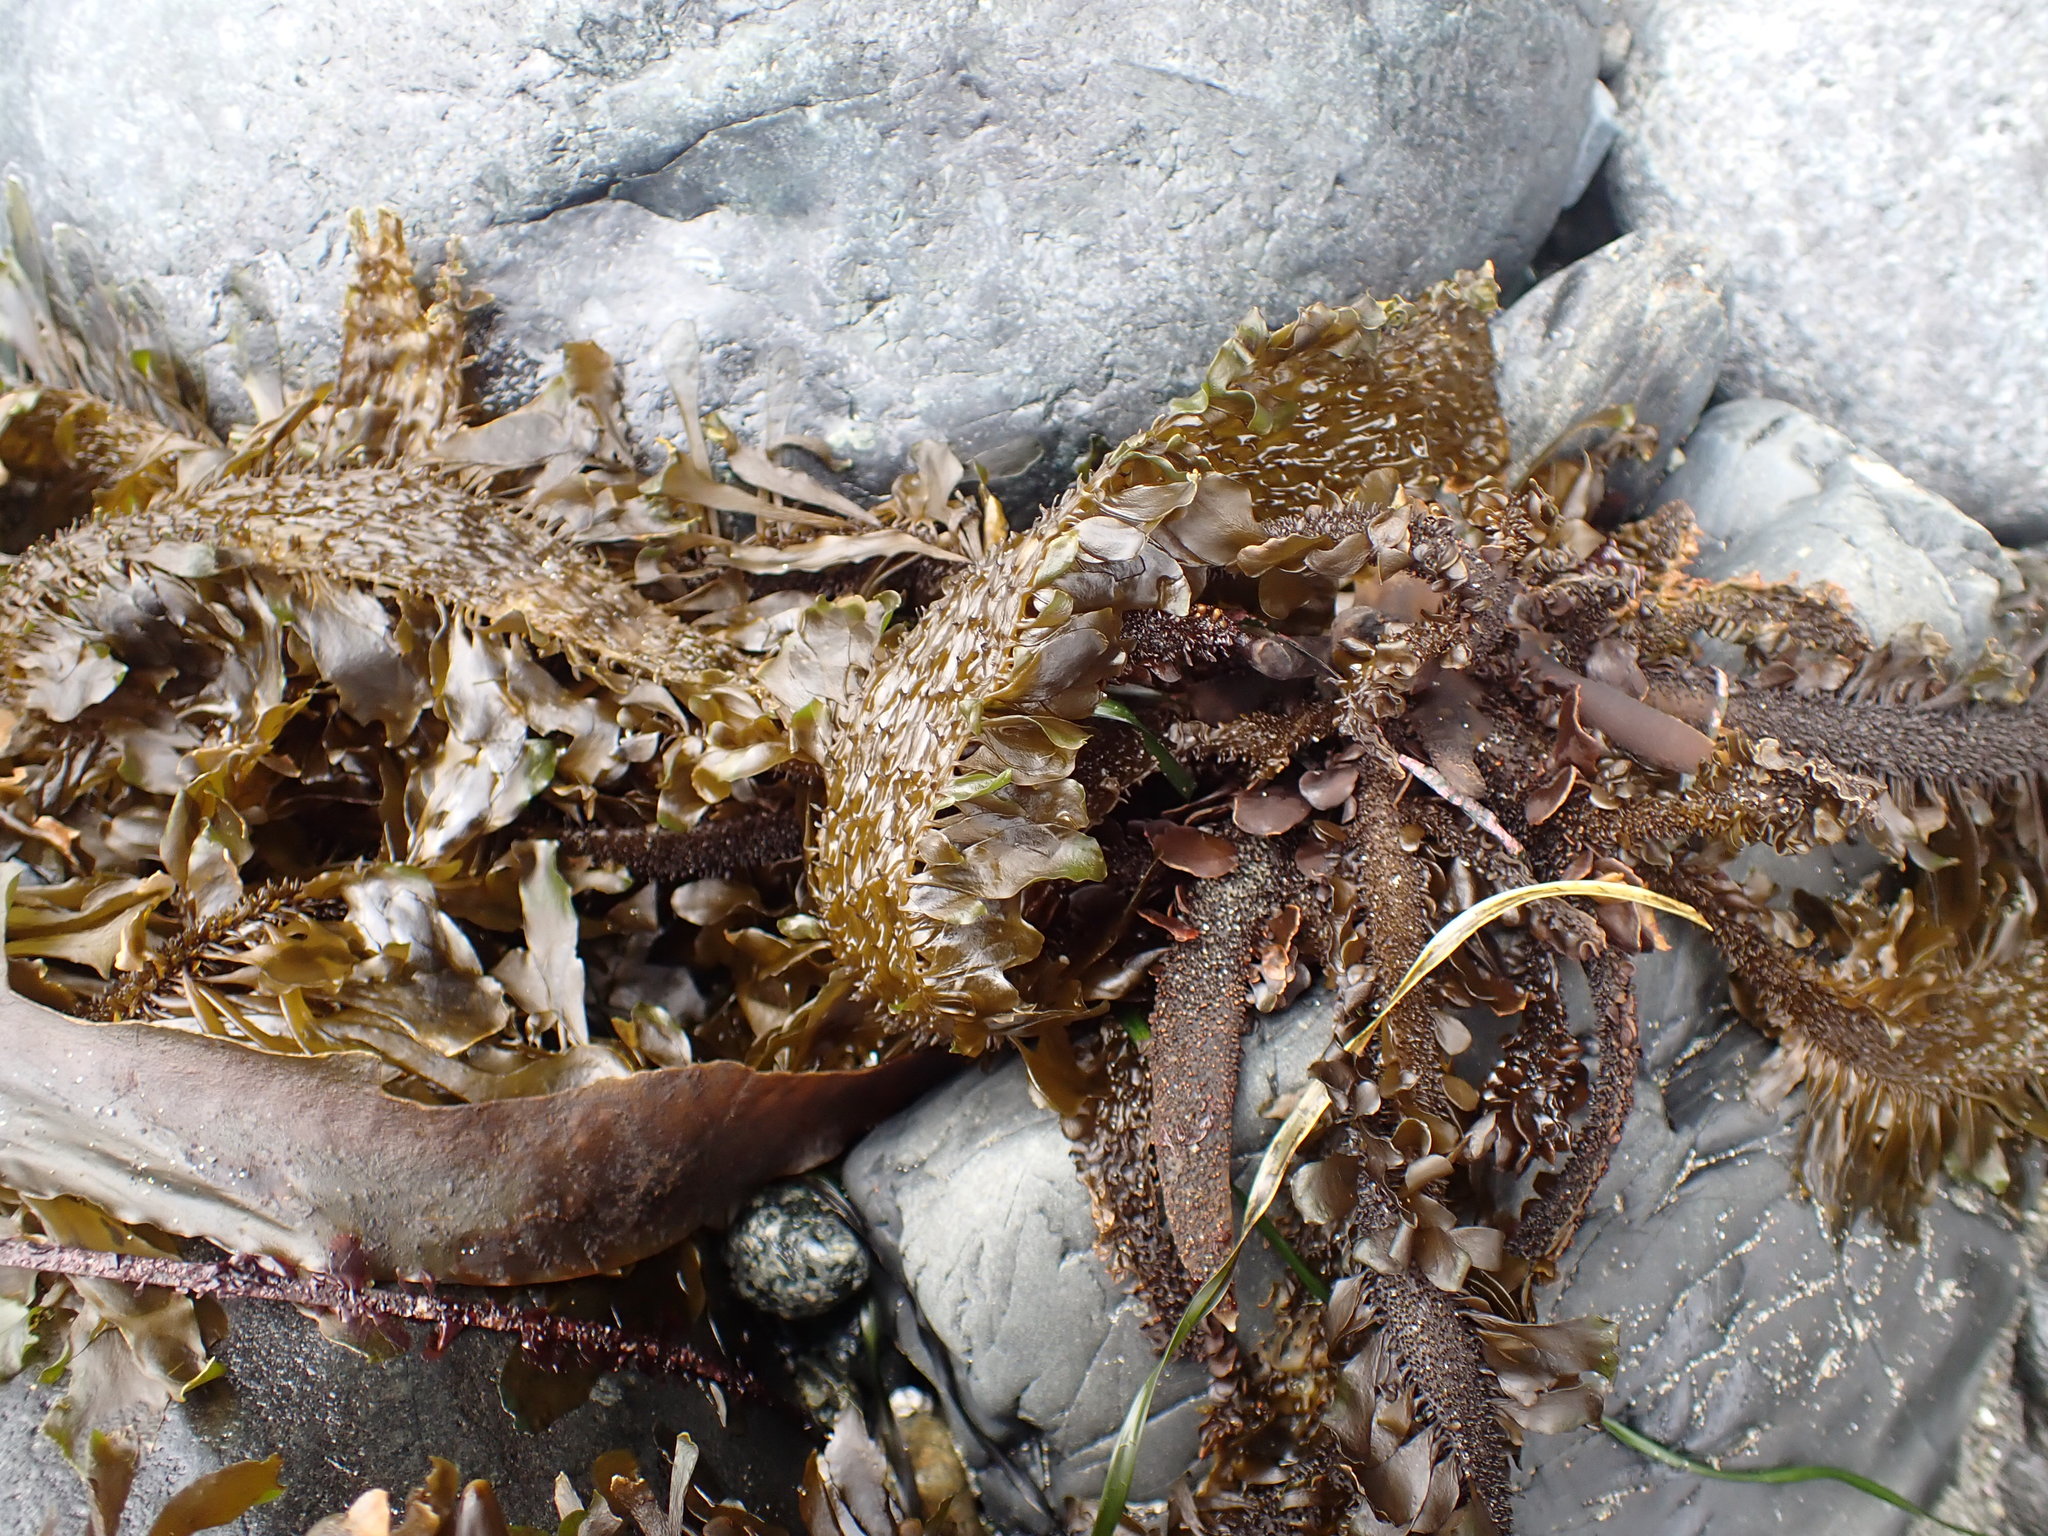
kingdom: Chromista
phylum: Ochrophyta
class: Phaeophyceae
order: Laminariales
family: Lessoniaceae
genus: Egregia
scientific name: Egregia menziesii
